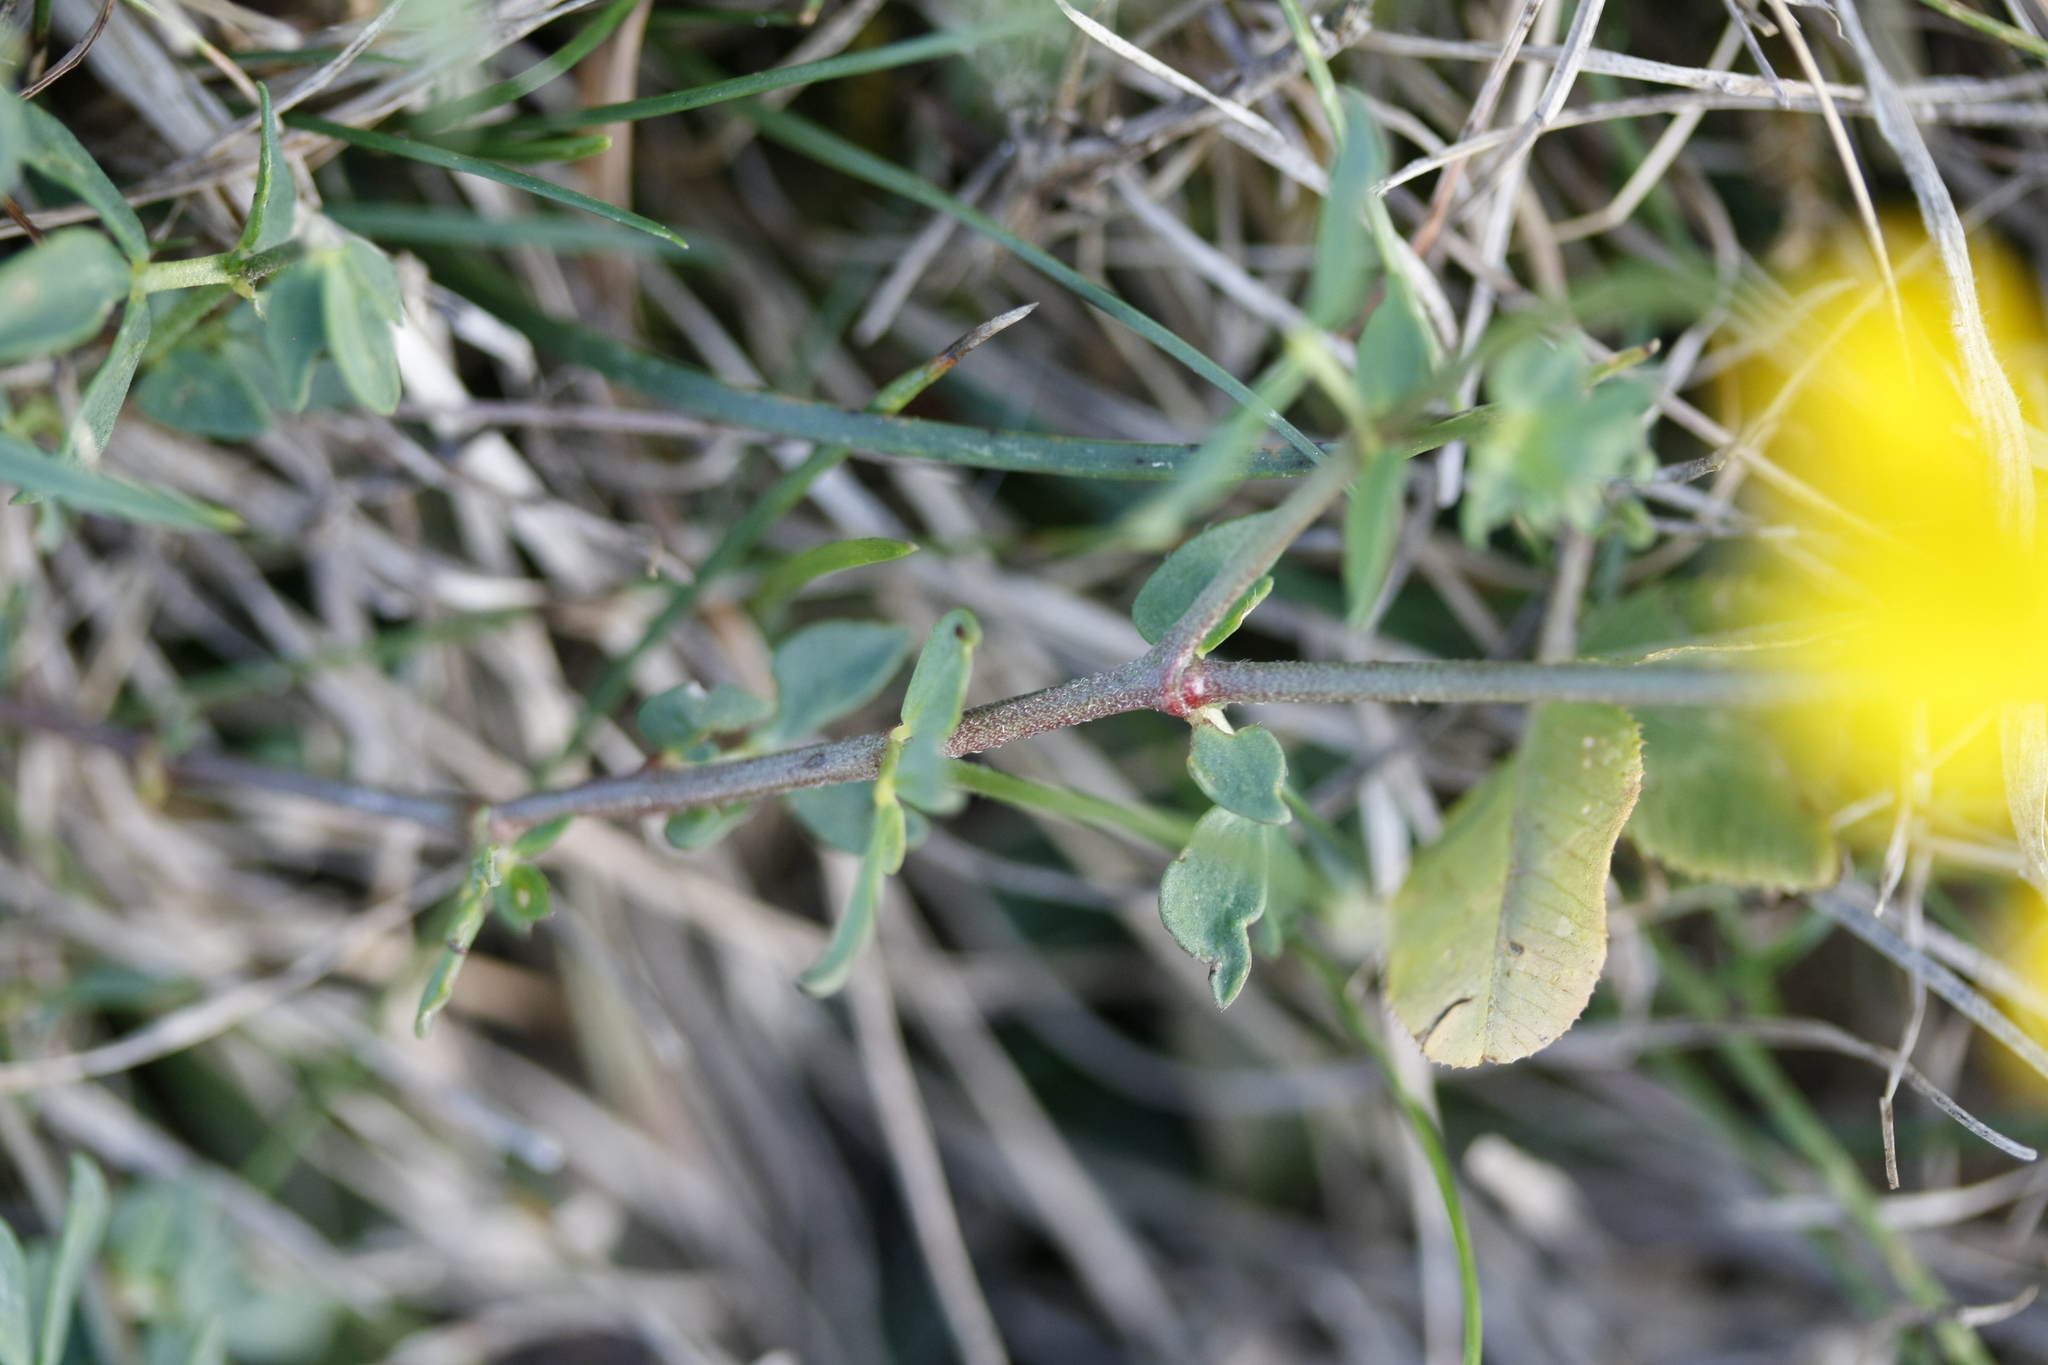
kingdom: Plantae
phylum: Tracheophyta
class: Magnoliopsida
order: Fabales
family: Fabaceae
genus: Lotus
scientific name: Lotus corniculatus
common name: Common bird's-foot-trefoil
